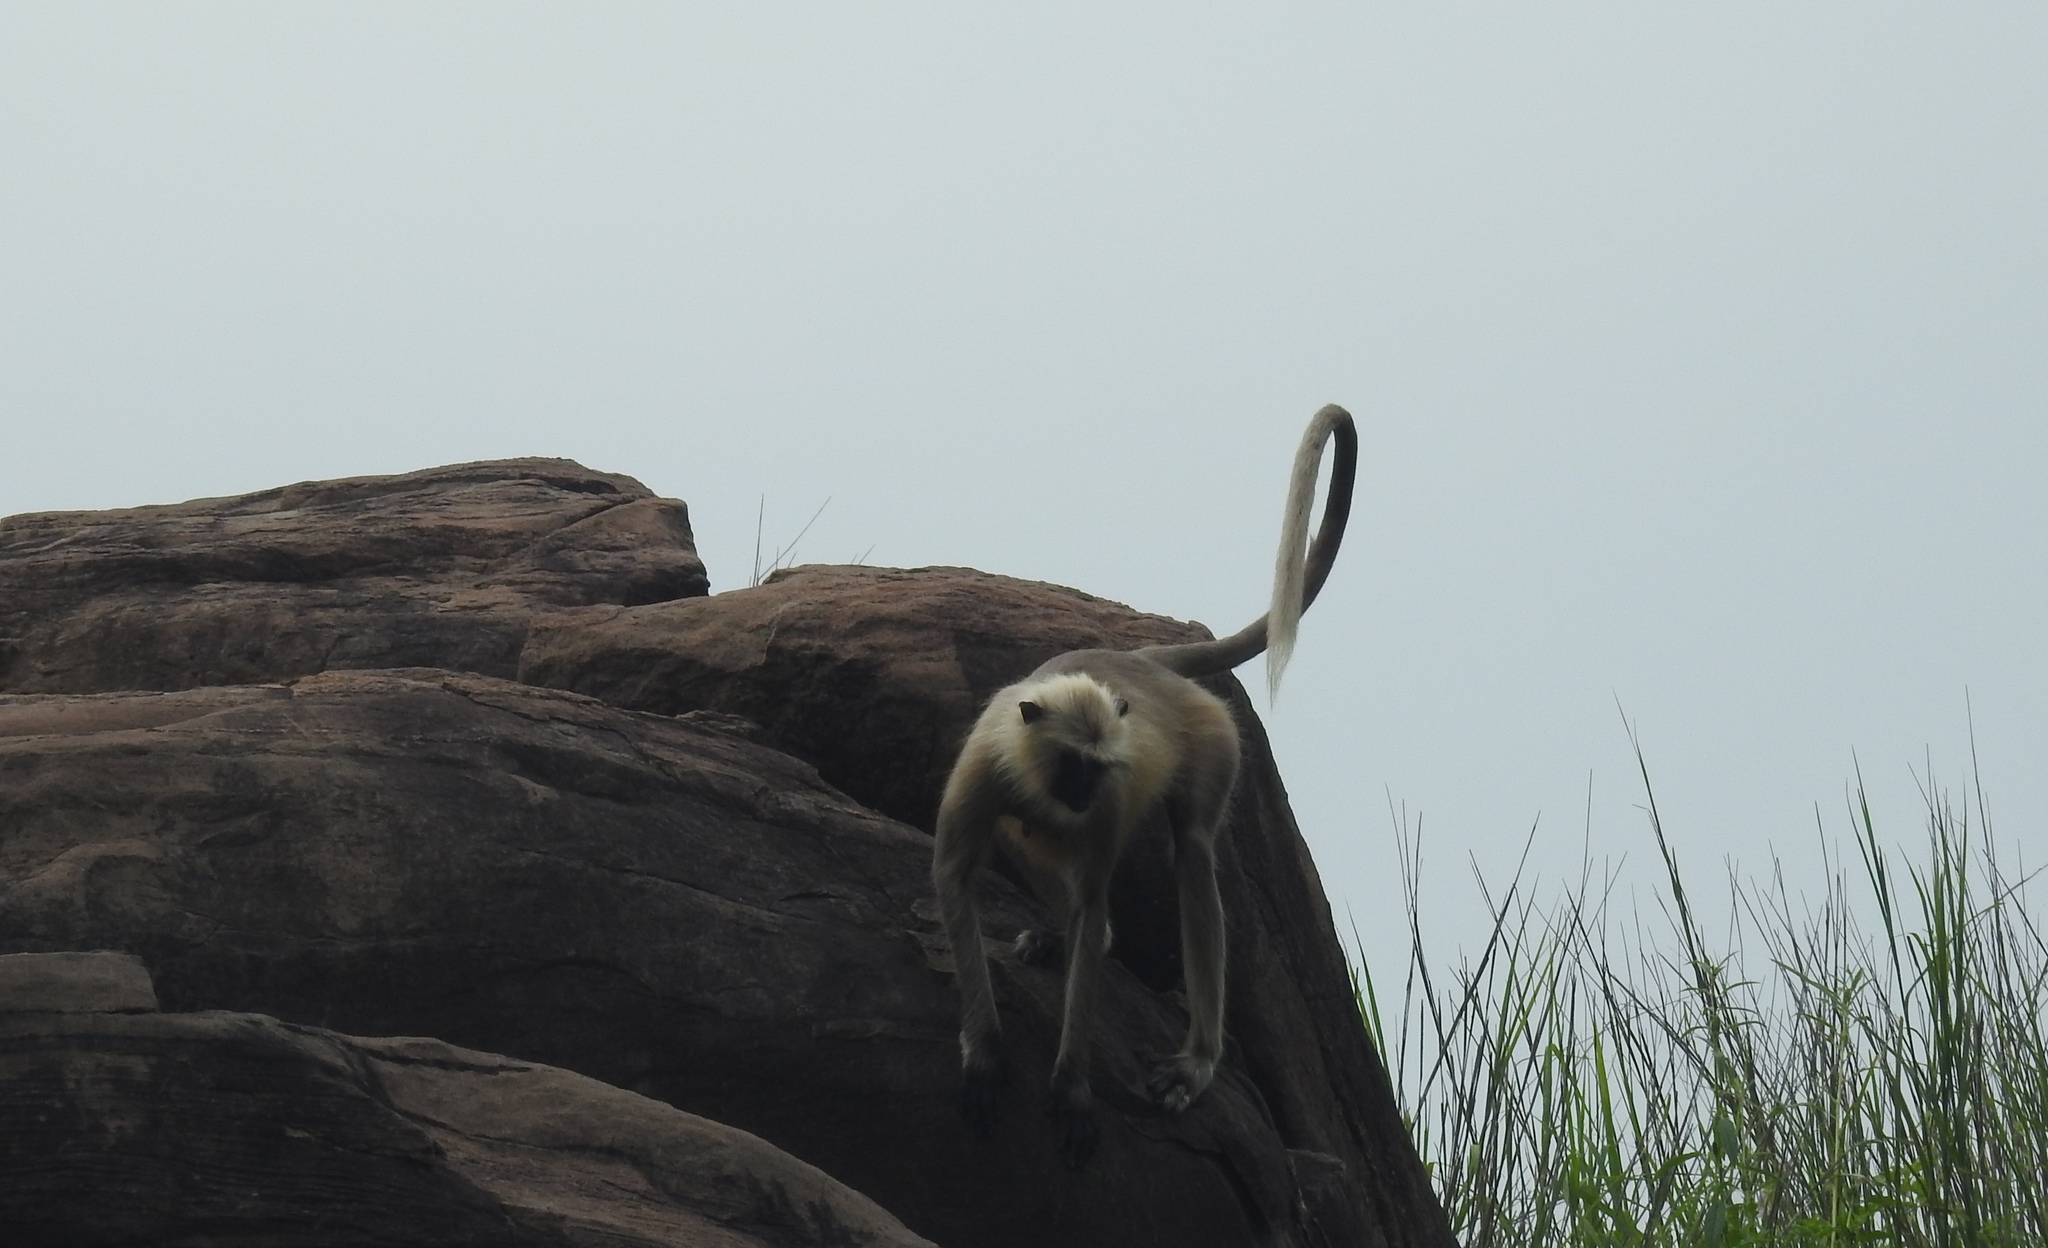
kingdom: Animalia
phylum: Chordata
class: Mammalia
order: Primates
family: Cercopithecidae
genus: Semnopithecus
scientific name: Semnopithecus entellus
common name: Northern plains gray langur
